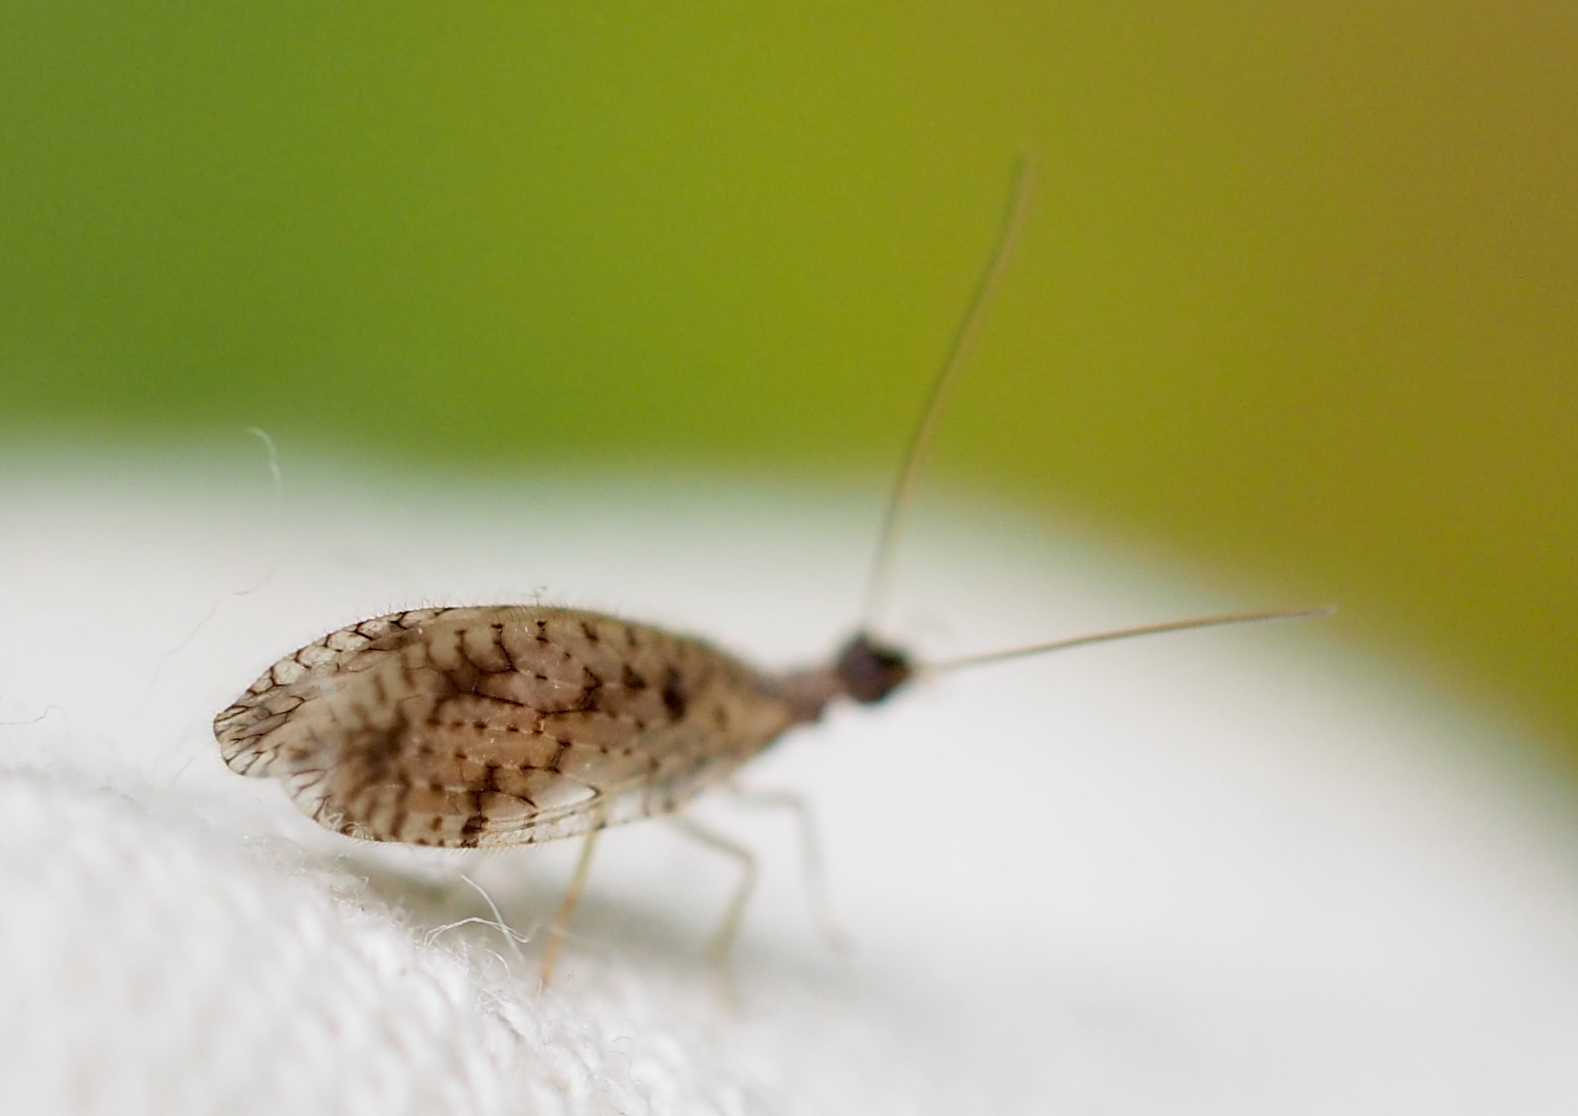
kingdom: Animalia
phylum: Arthropoda
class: Insecta
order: Neuroptera
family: Hemerobiidae
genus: Micromus
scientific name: Micromus variegatus
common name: Brown lacewing
